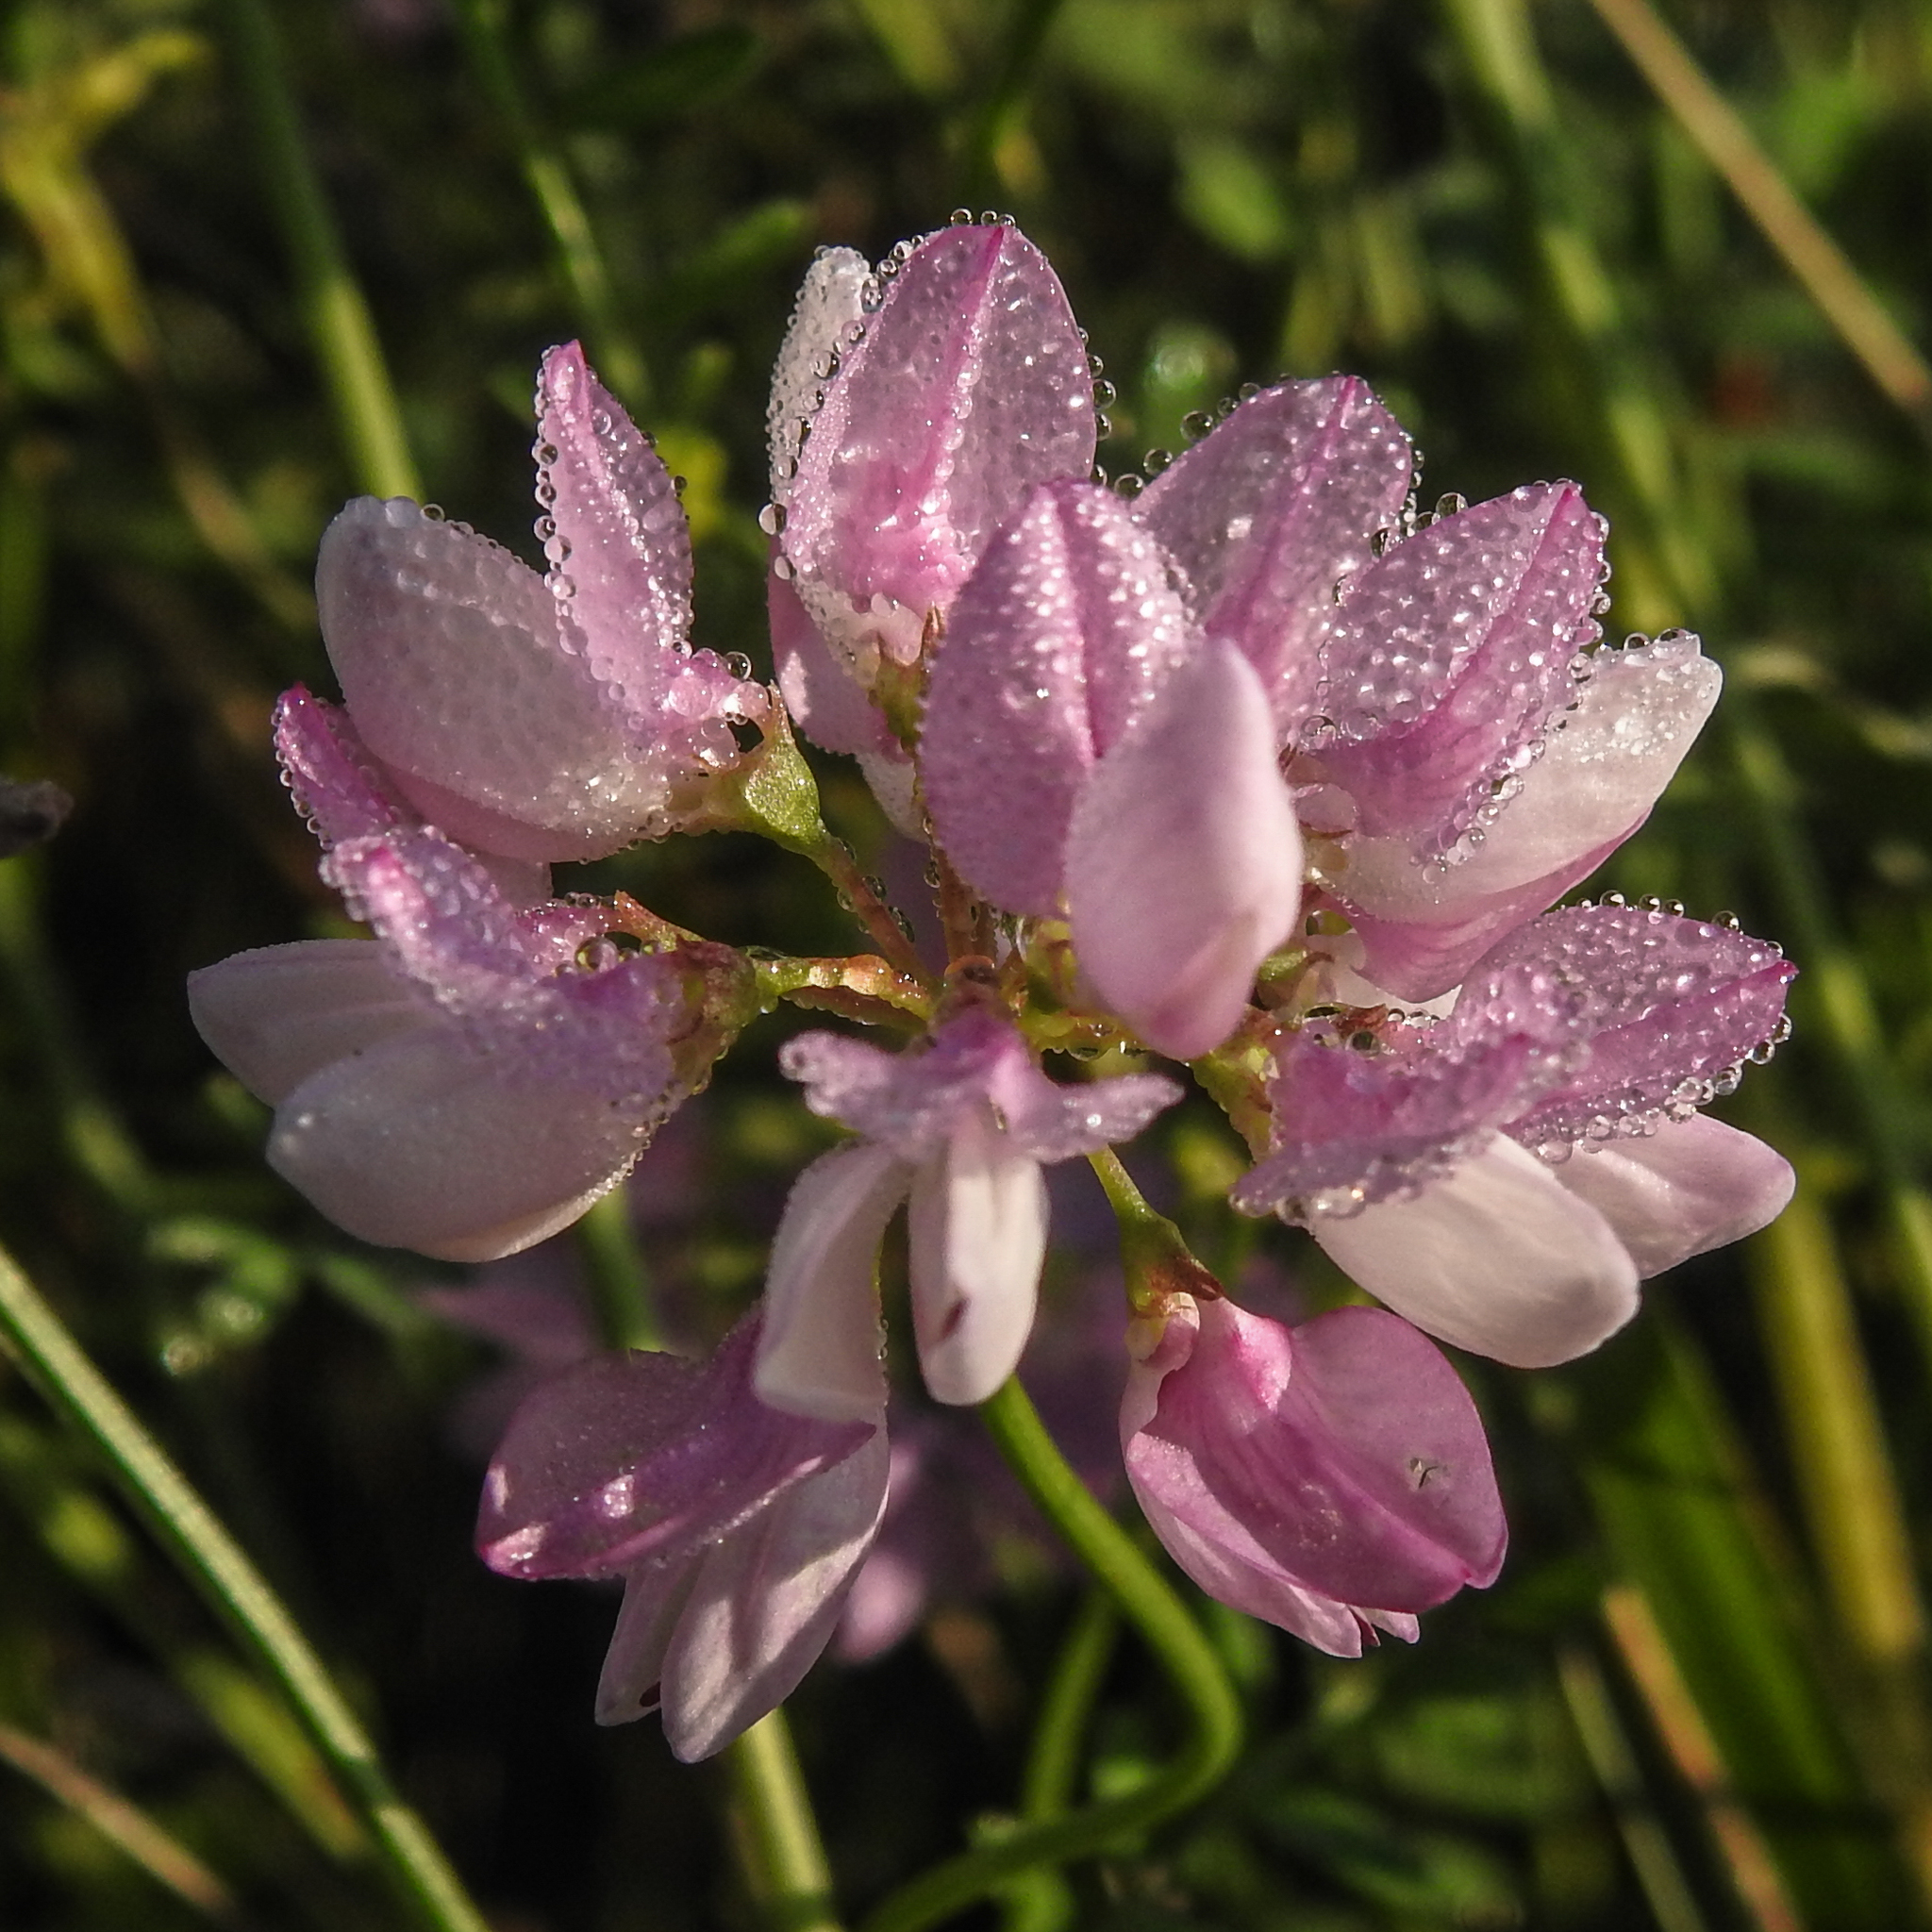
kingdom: Plantae
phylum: Tracheophyta
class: Magnoliopsida
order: Fabales
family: Fabaceae
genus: Coronilla
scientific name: Coronilla varia
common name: Crownvetch
